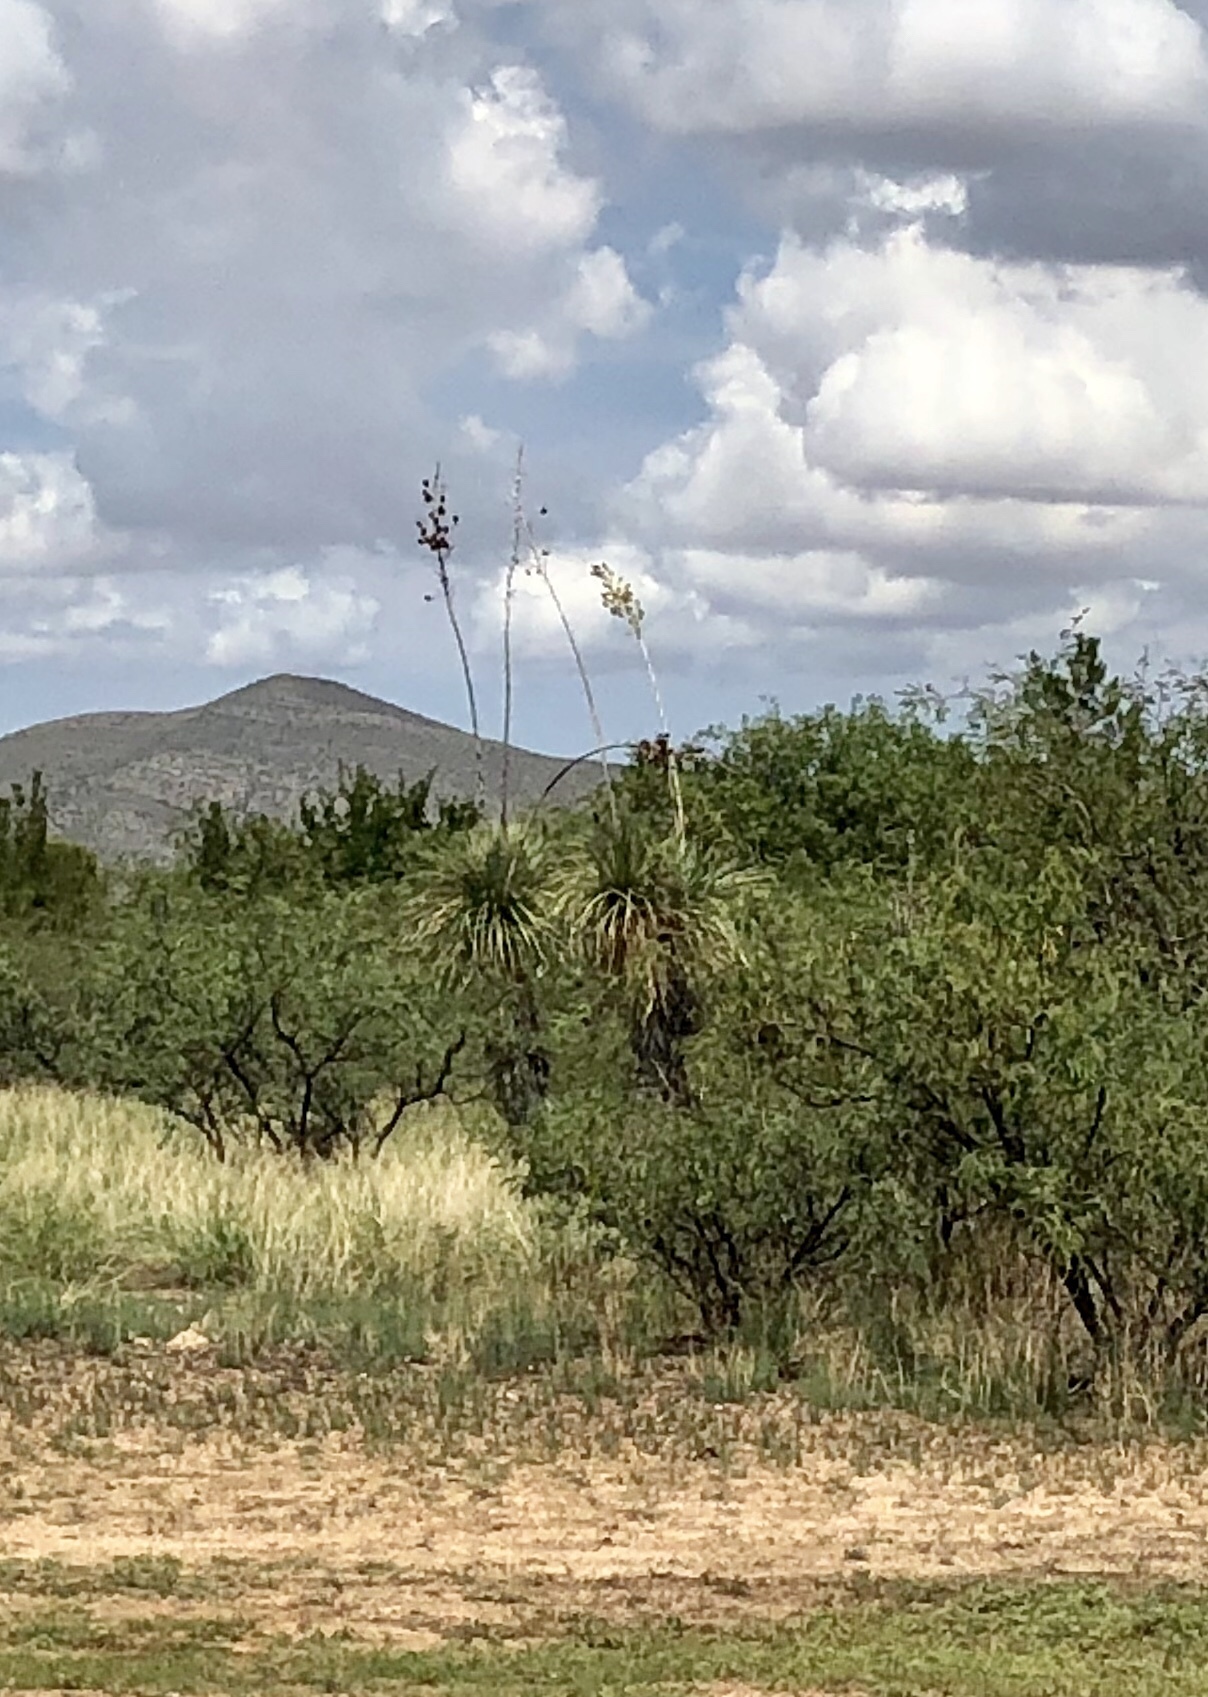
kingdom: Plantae
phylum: Tracheophyta
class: Liliopsida
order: Asparagales
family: Asparagaceae
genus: Yucca
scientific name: Yucca elata
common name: Palmella
